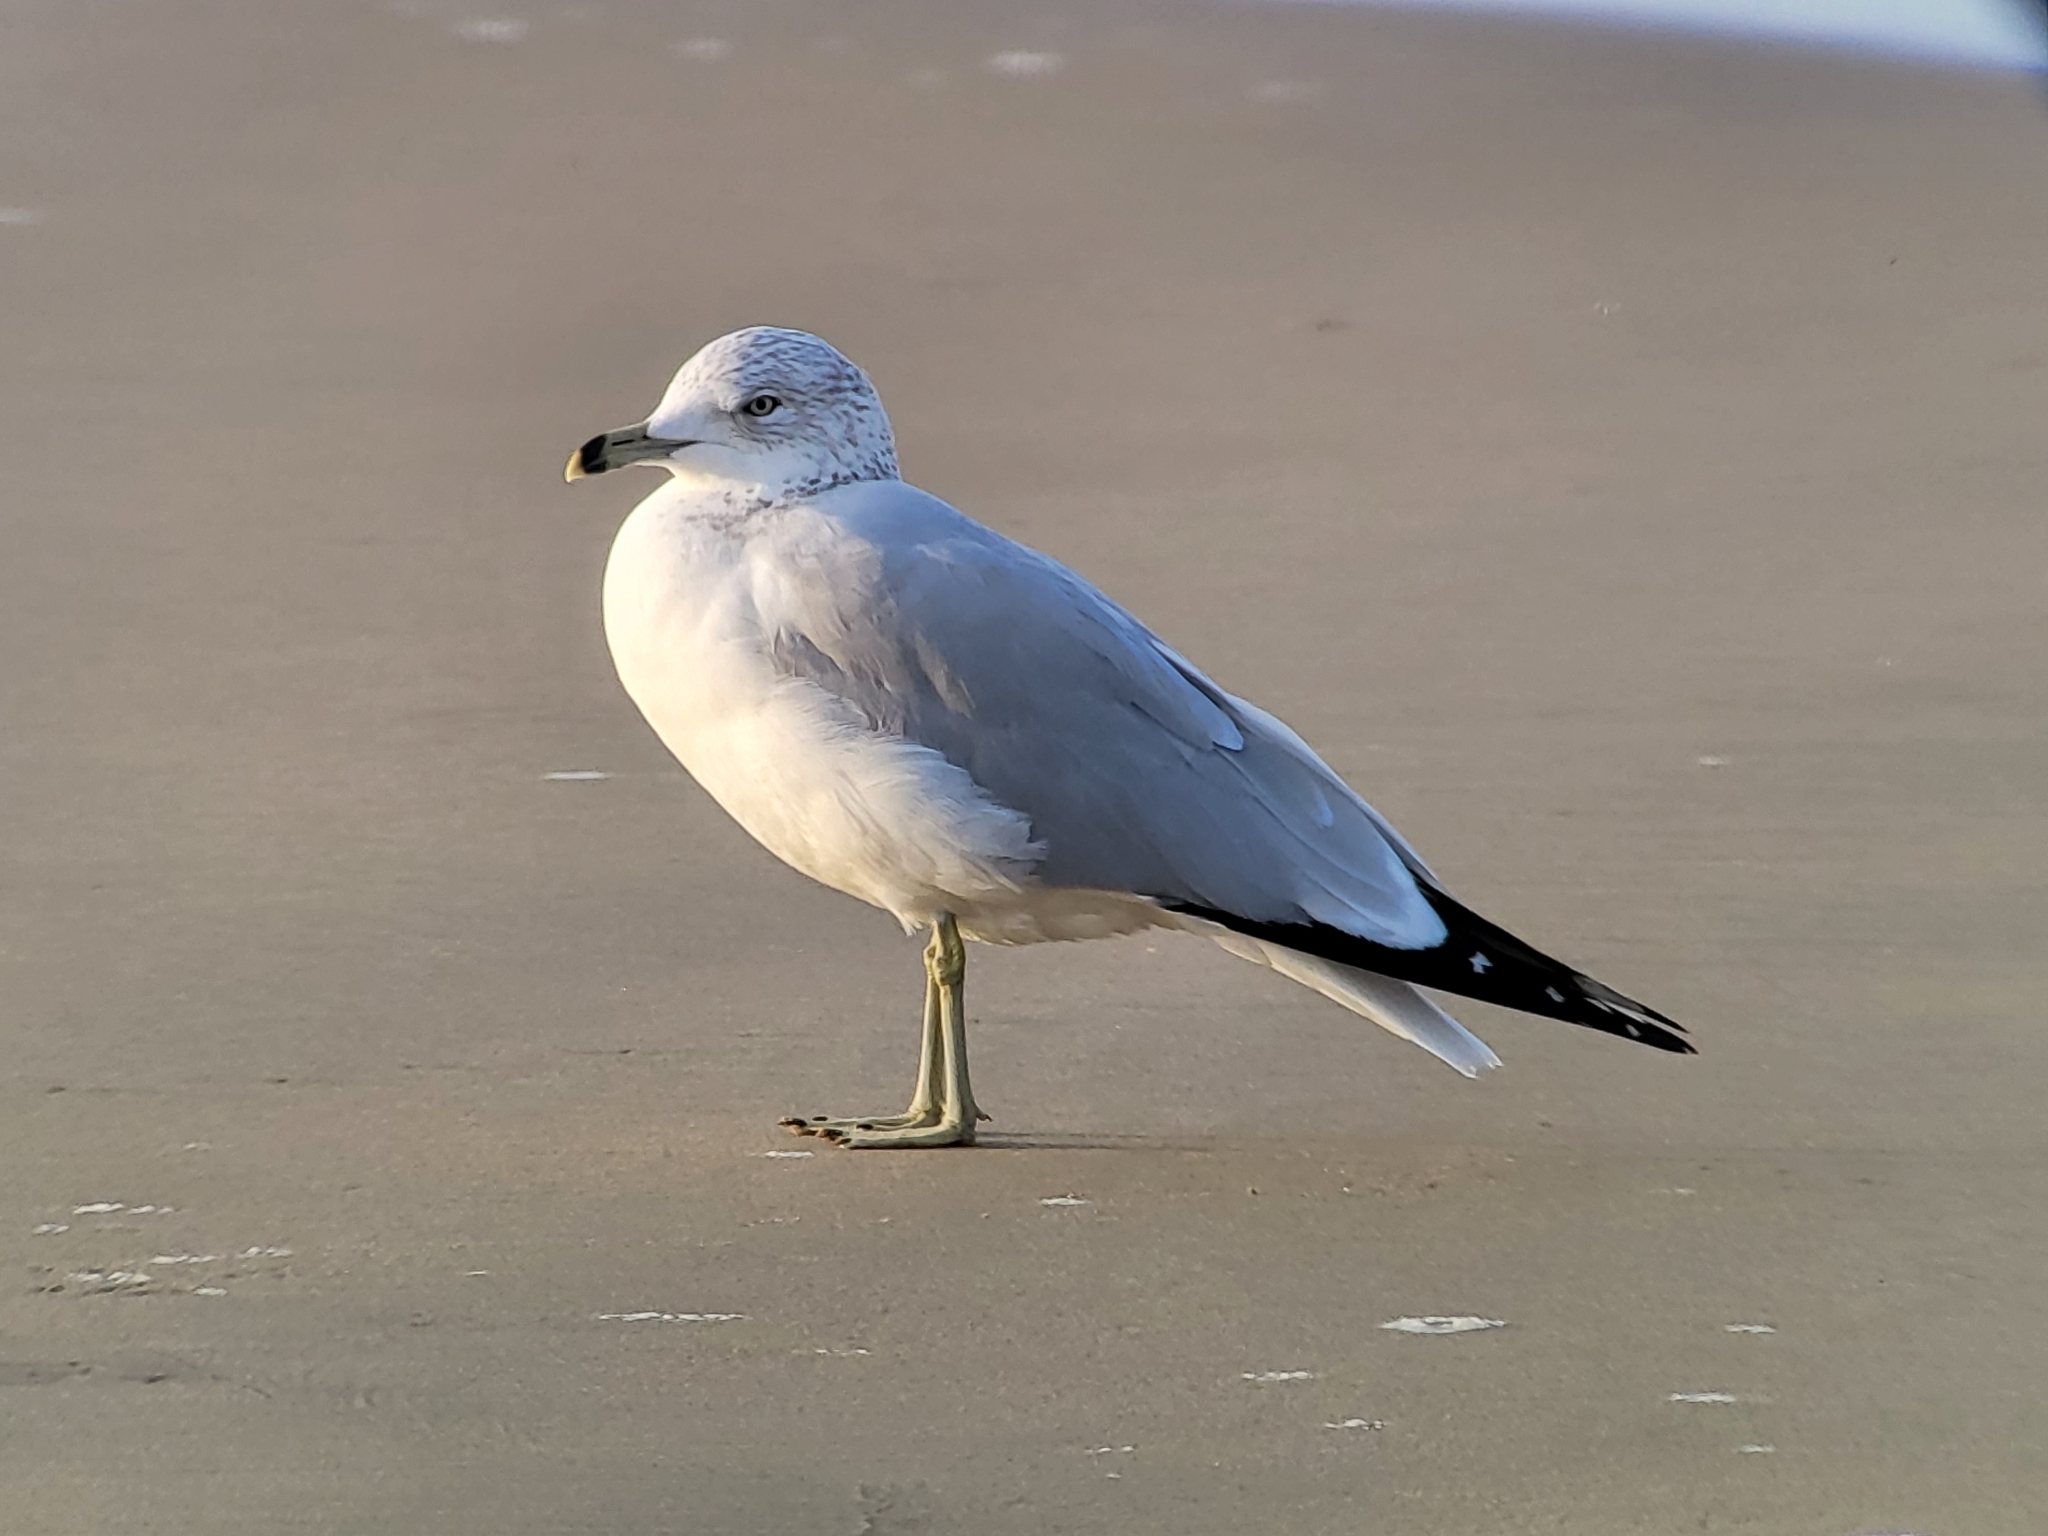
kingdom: Animalia
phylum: Chordata
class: Aves
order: Charadriiformes
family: Laridae
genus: Larus
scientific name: Larus delawarensis
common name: Ring-billed gull
